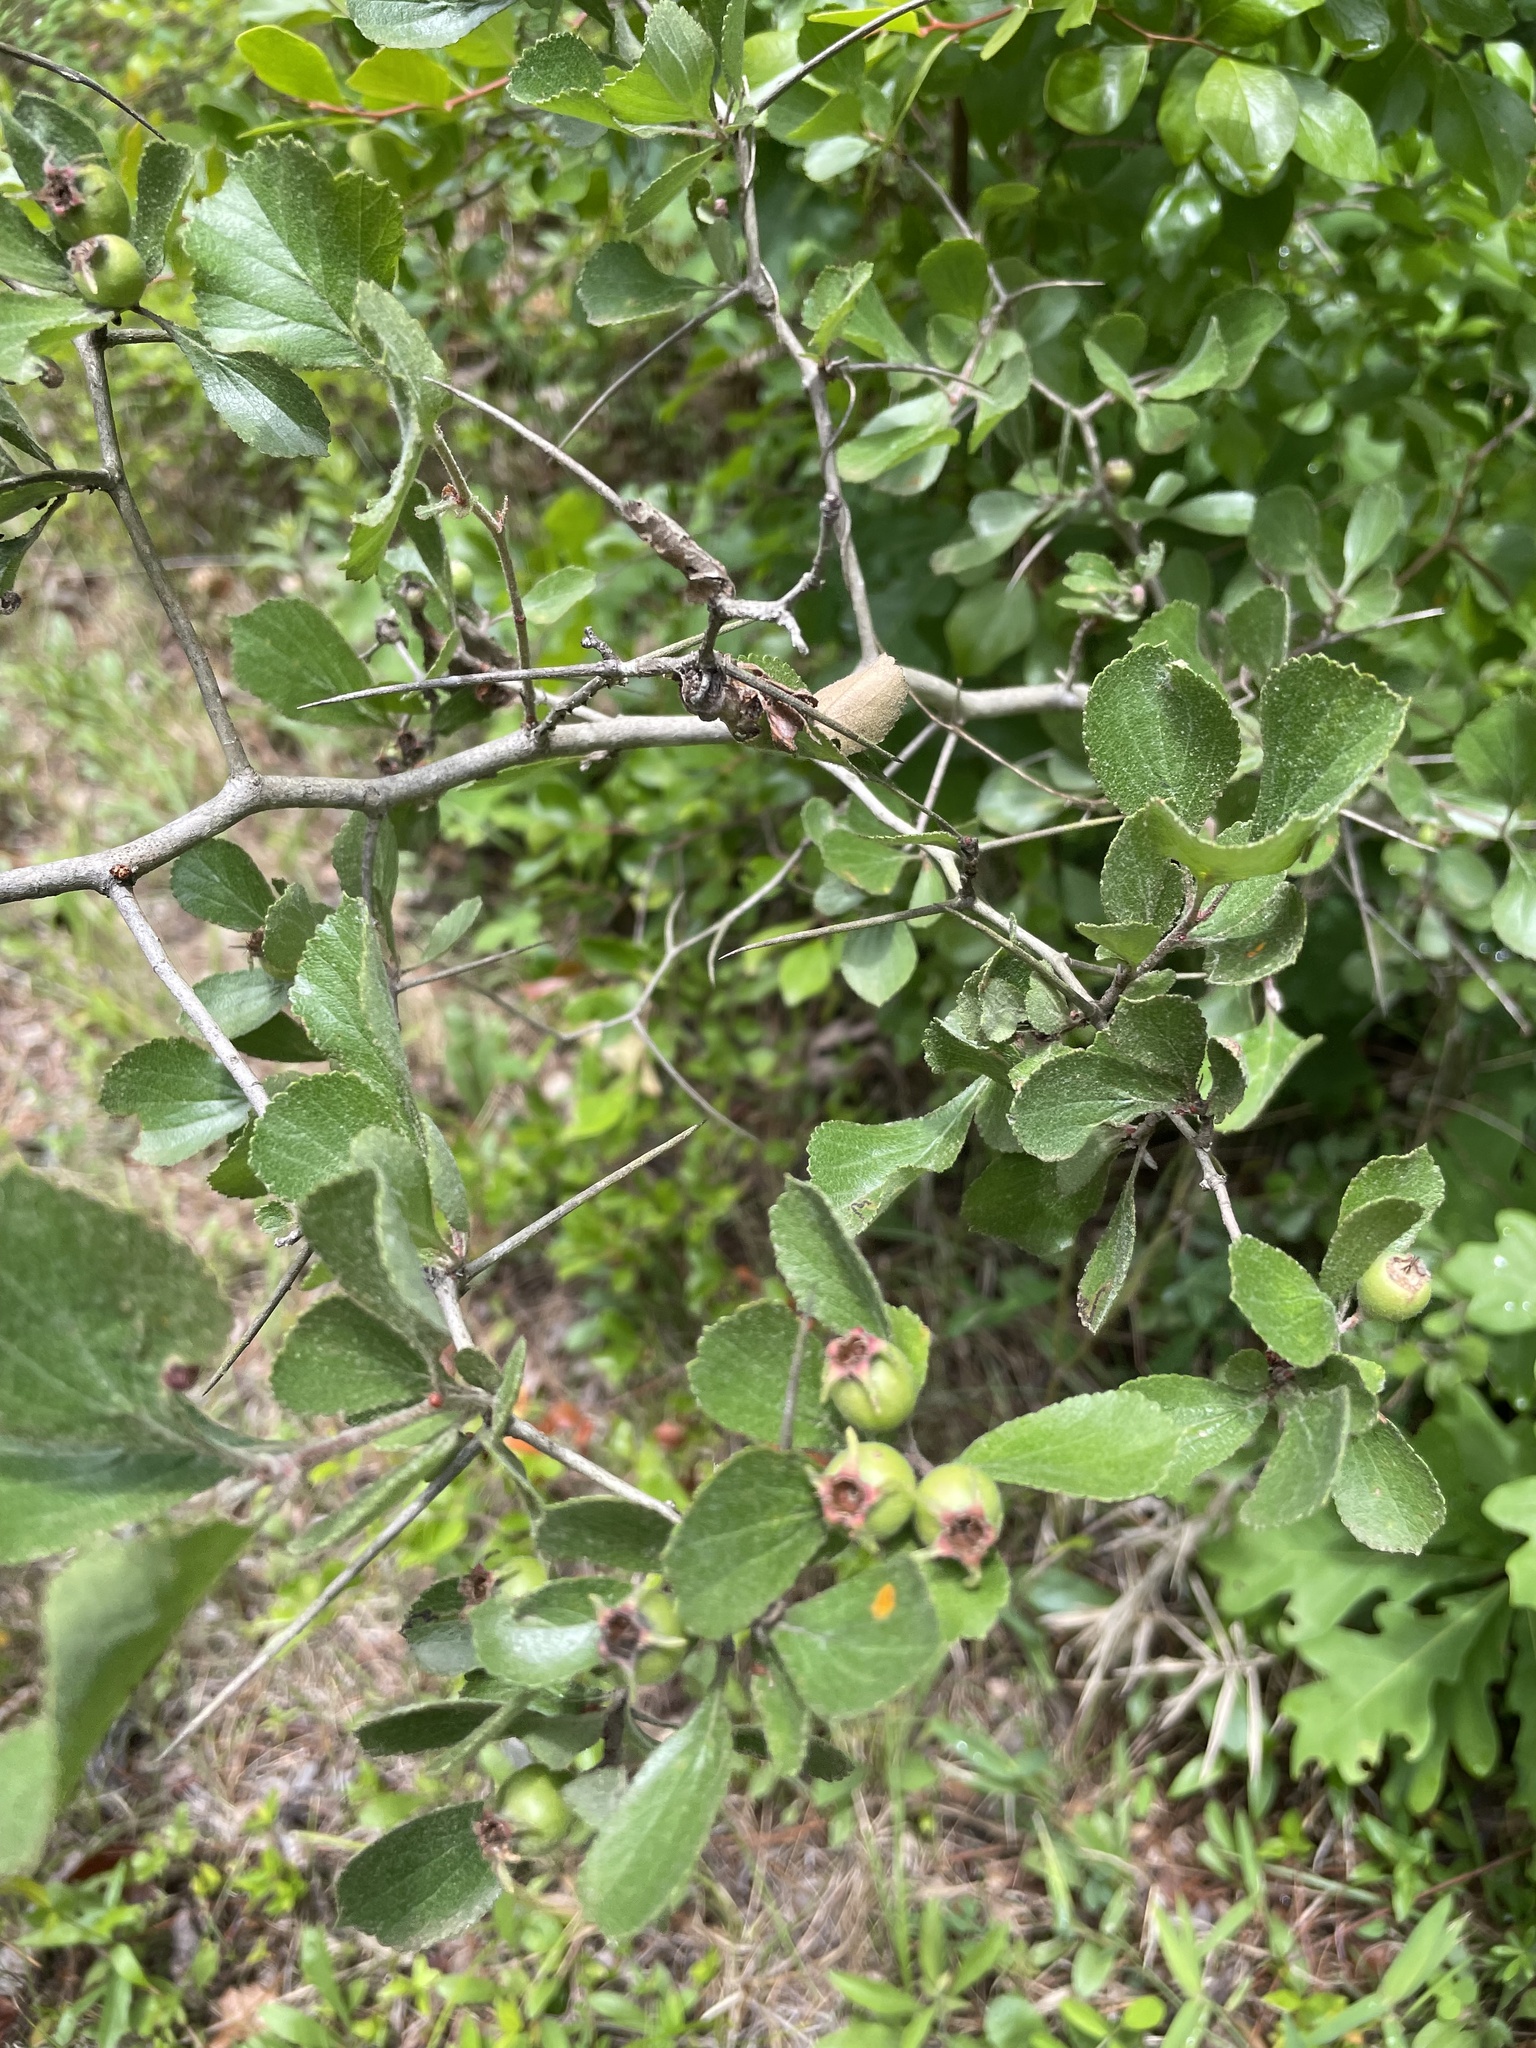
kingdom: Plantae
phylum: Tracheophyta
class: Magnoliopsida
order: Rosales
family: Rosaceae
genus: Crataegus
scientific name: Crataegus munda
